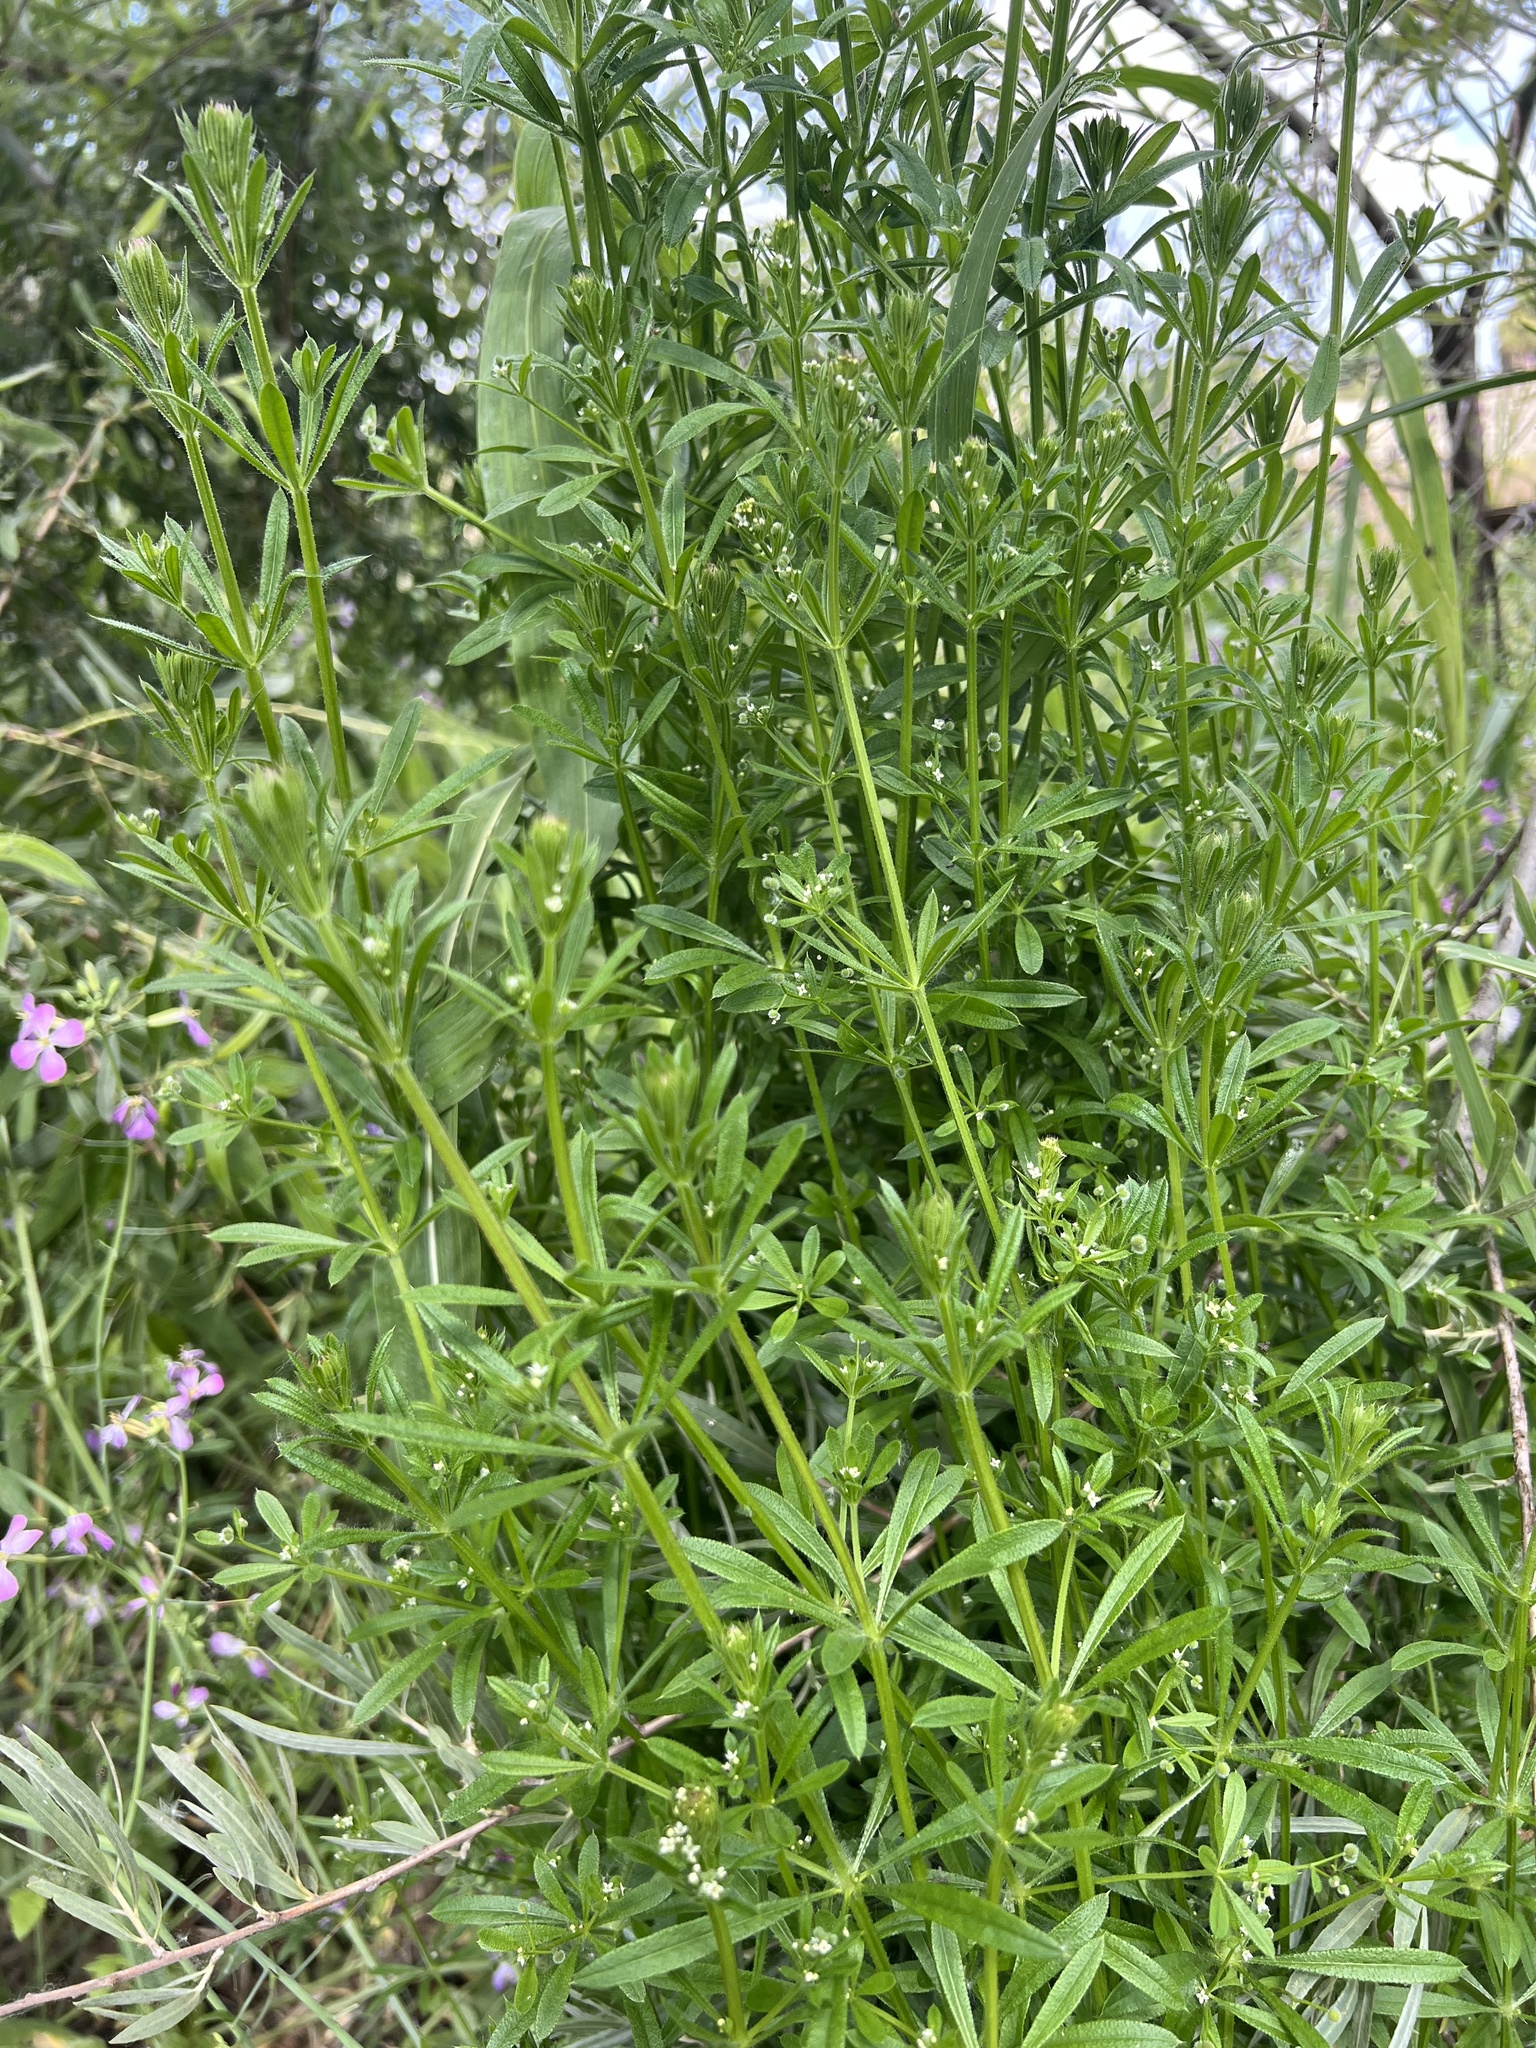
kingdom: Plantae
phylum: Tracheophyta
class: Magnoliopsida
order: Gentianales
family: Rubiaceae
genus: Galium
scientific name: Galium aparine
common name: Cleavers
